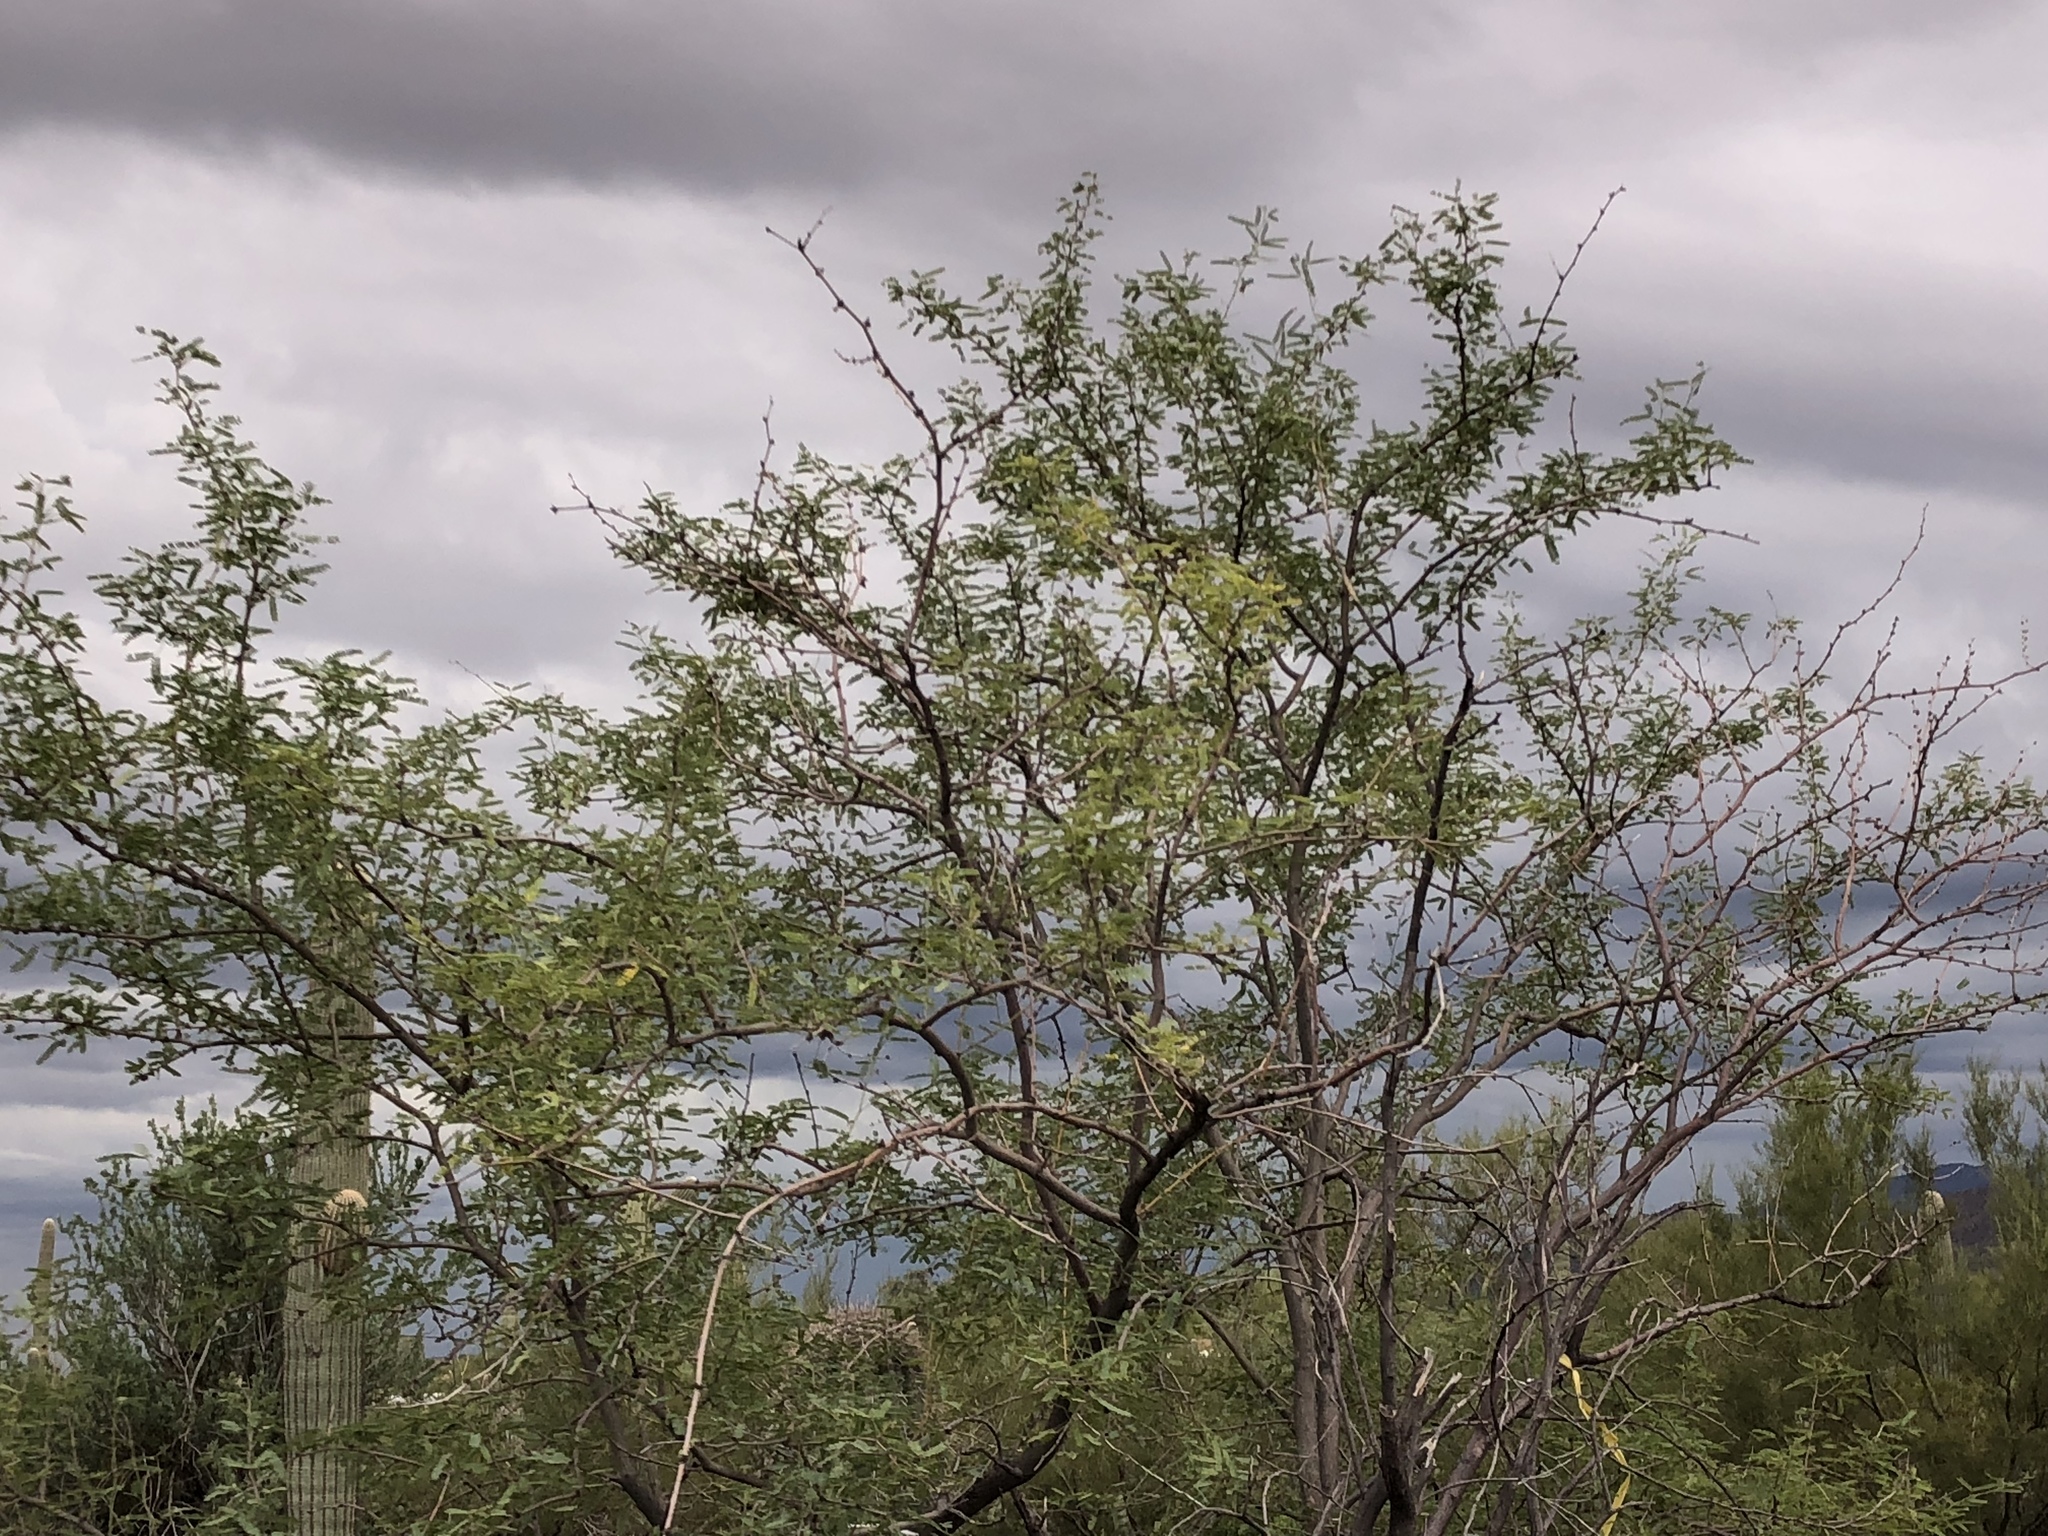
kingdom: Plantae
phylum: Tracheophyta
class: Magnoliopsida
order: Fabales
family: Fabaceae
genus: Senegalia
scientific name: Senegalia greggii
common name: Texas-mimosa
